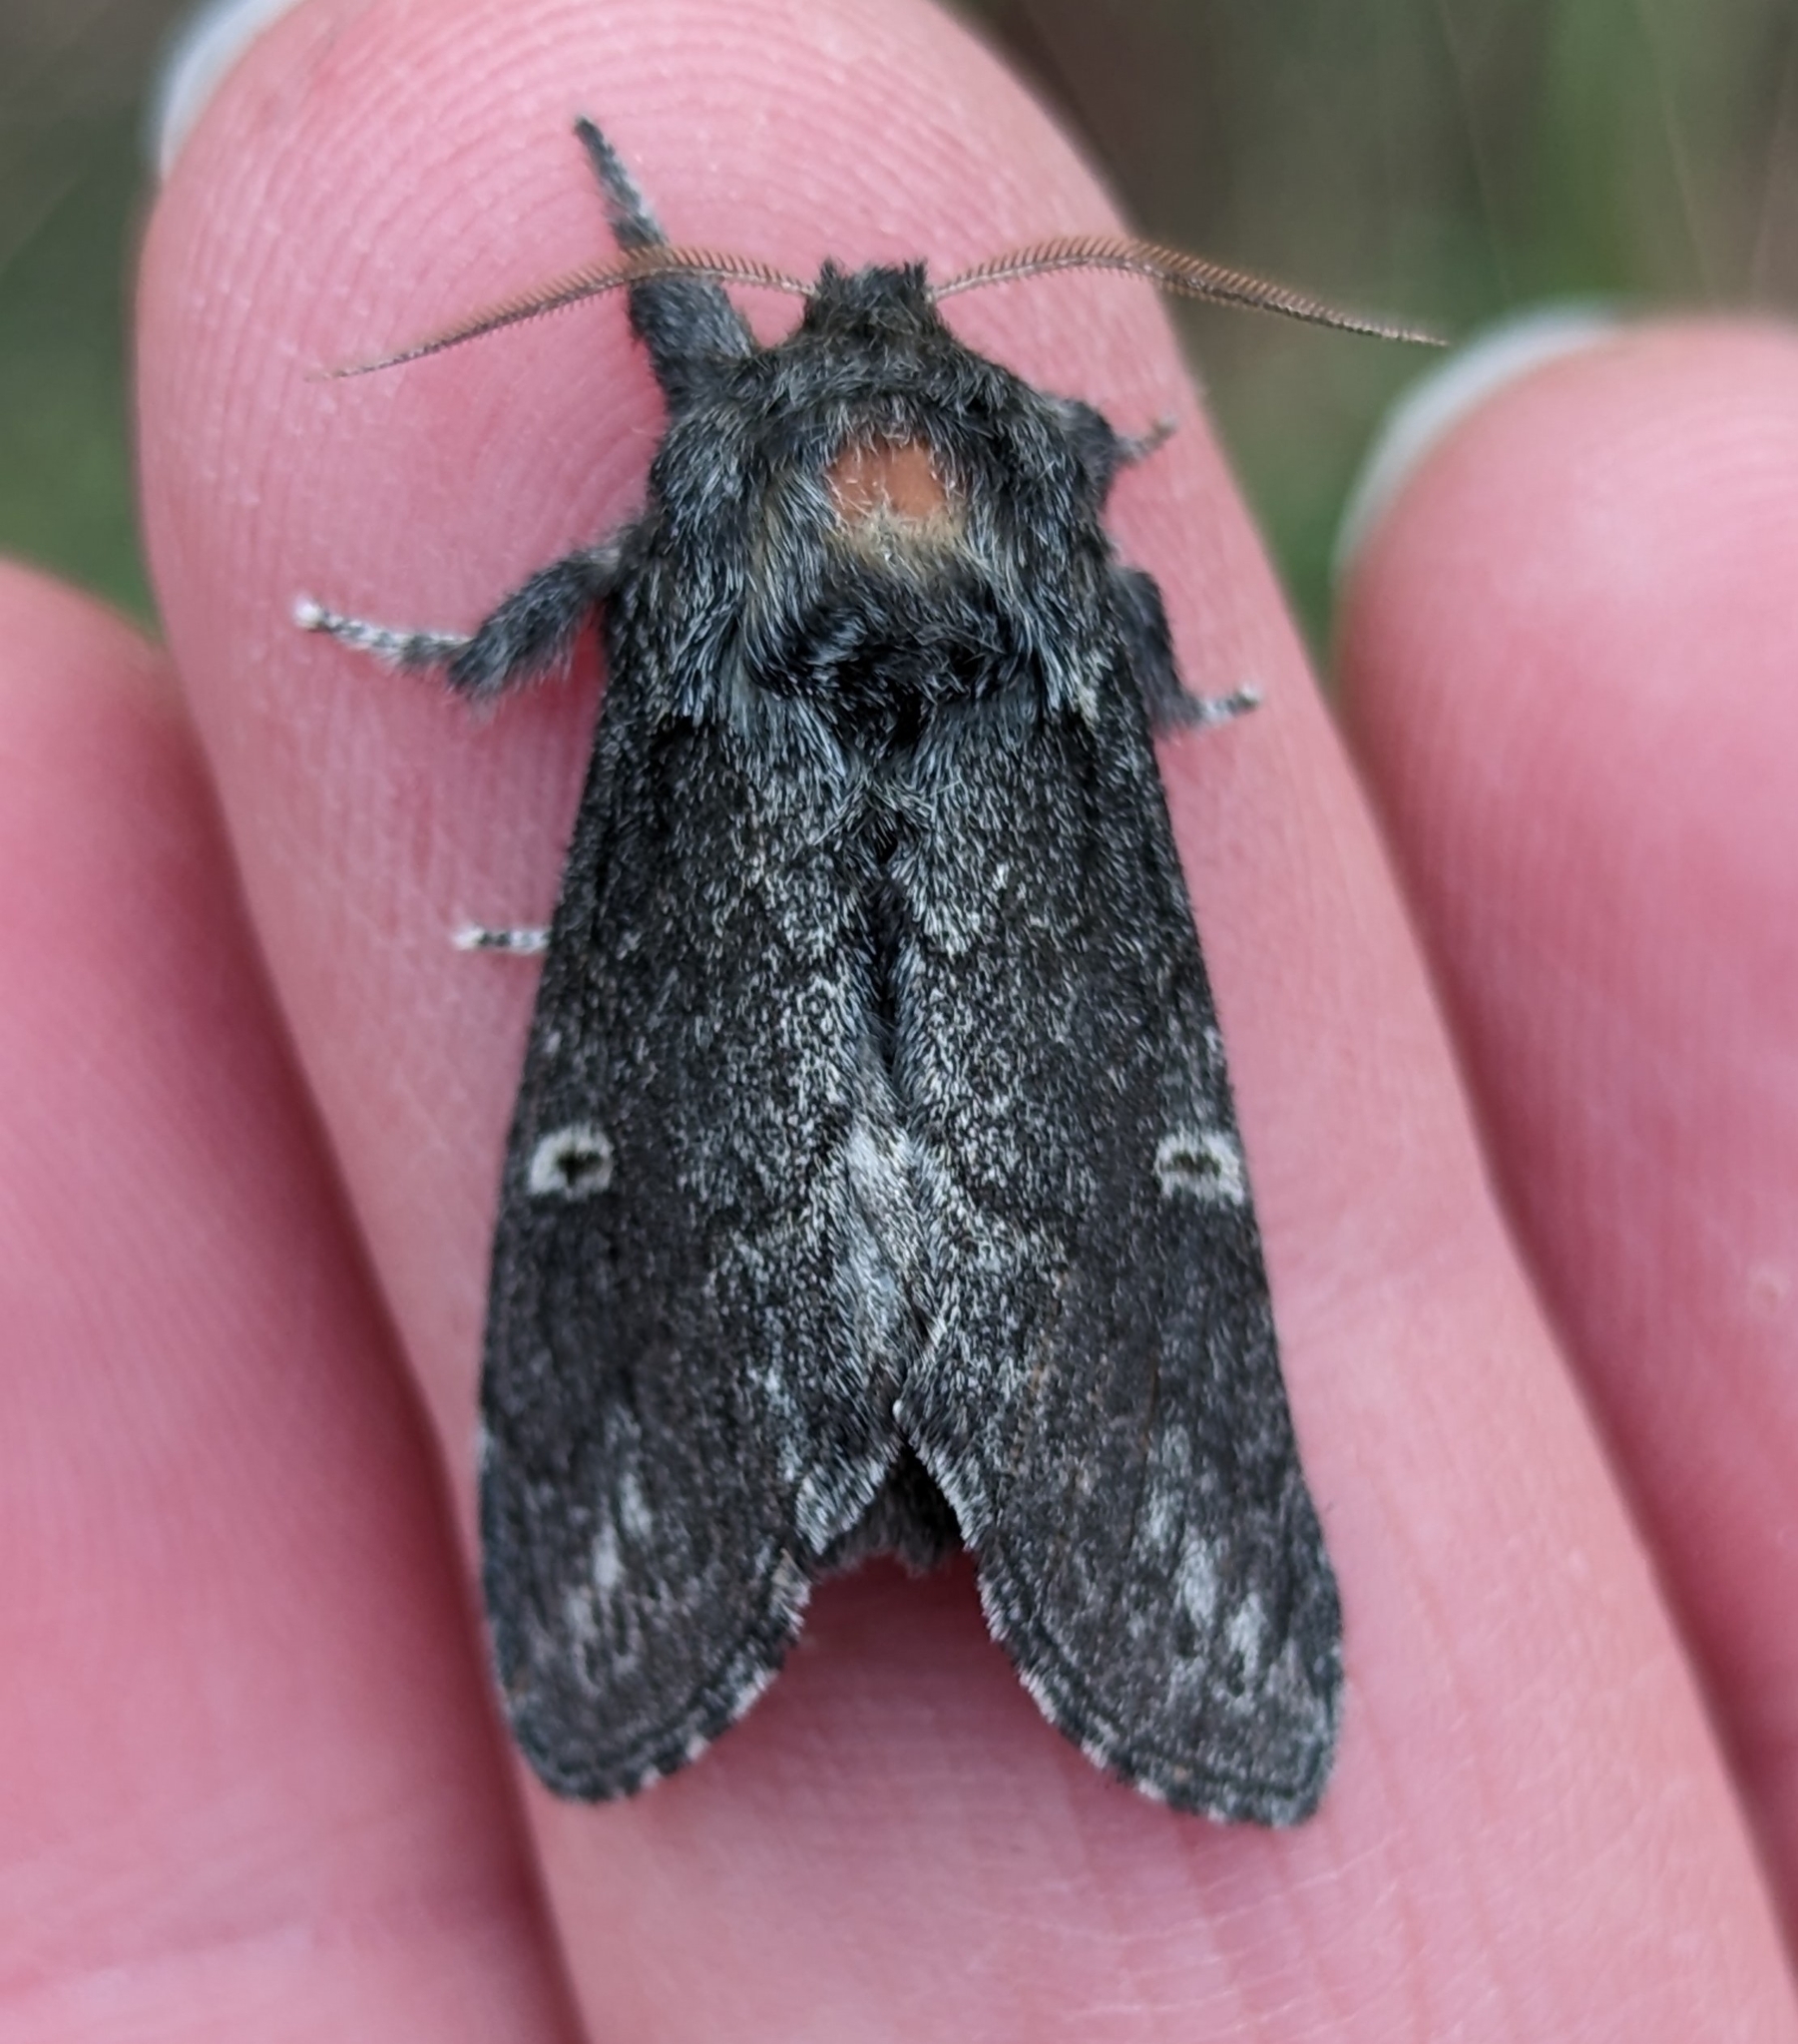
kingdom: Animalia
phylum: Arthropoda
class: Insecta
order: Lepidoptera
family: Notodontidae
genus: Notodonta
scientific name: Notodonta torva
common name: Large dark prominent
